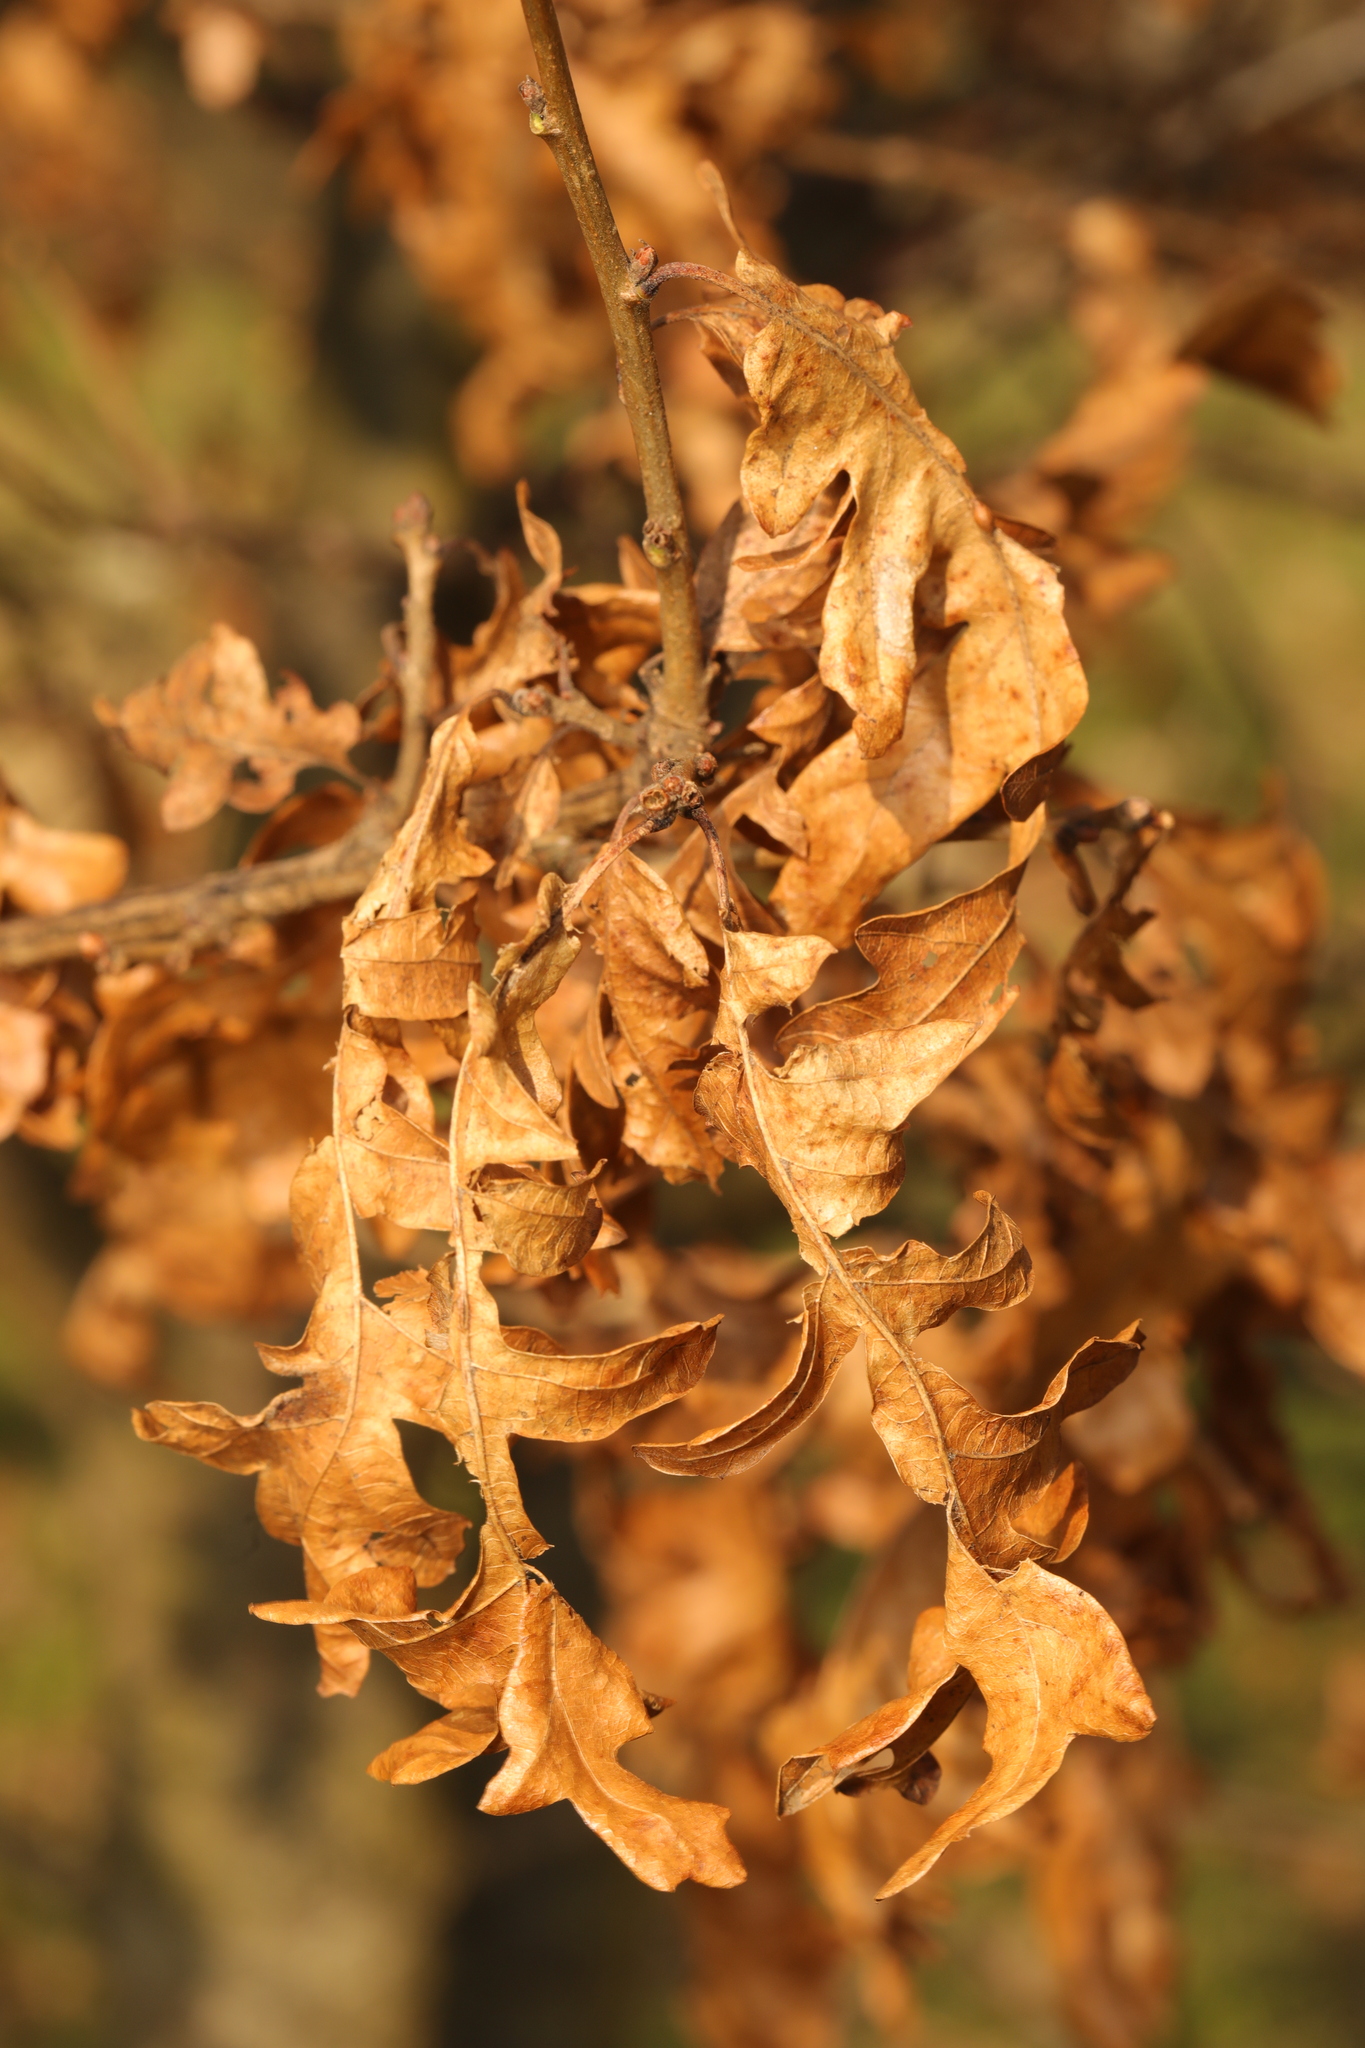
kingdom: Plantae
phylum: Tracheophyta
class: Magnoliopsida
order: Fagales
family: Fagaceae
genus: Quercus
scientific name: Quercus cerris
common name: Turkey oak
